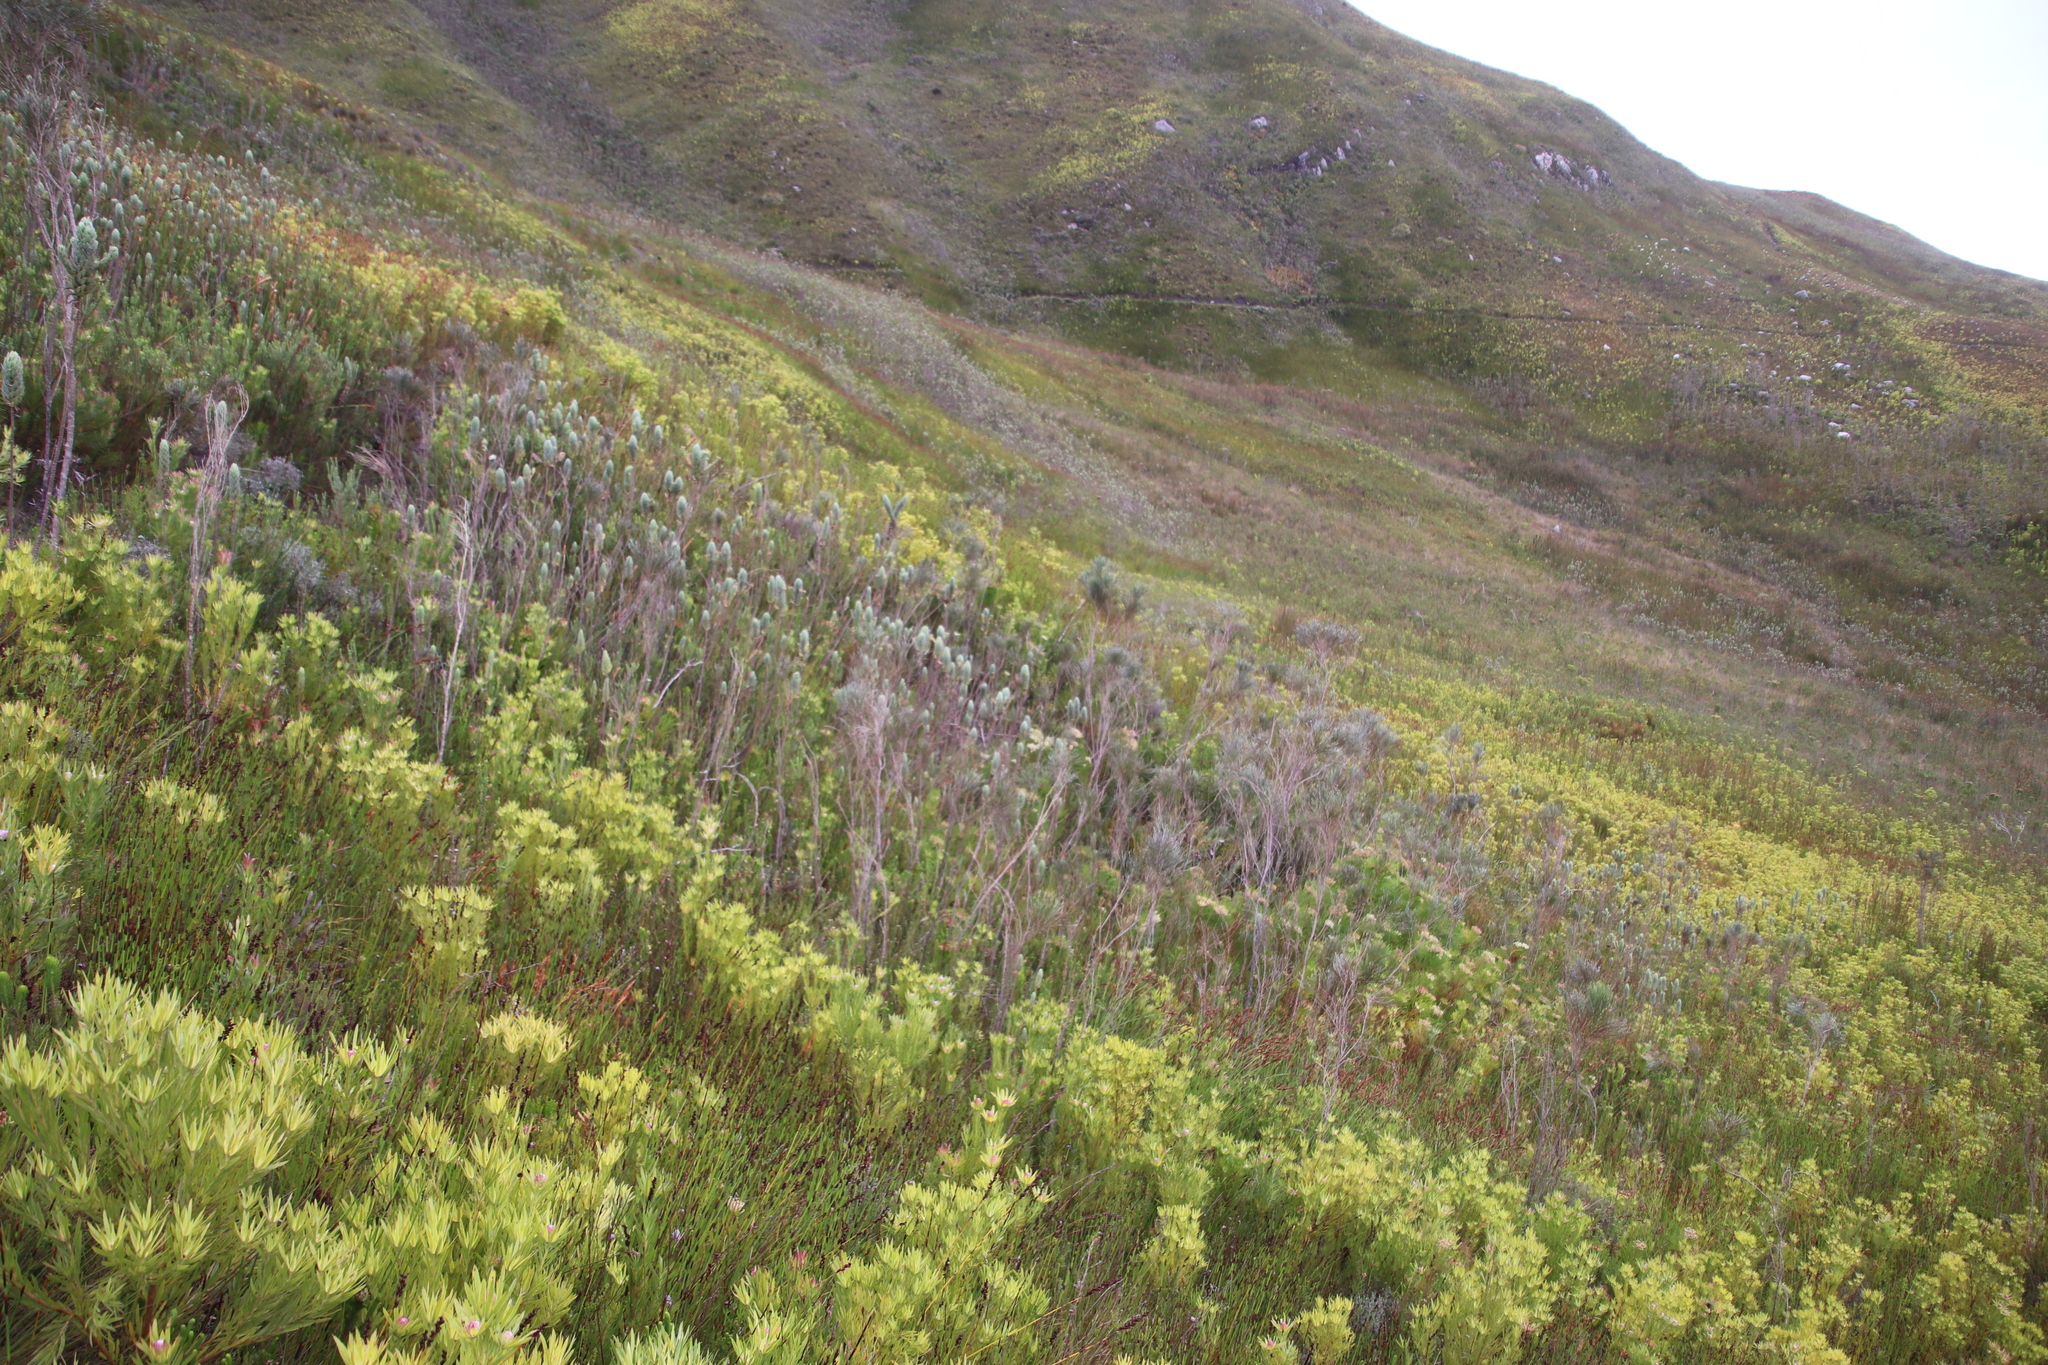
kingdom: Plantae
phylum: Tracheophyta
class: Magnoliopsida
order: Asterales
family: Asteraceae
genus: Osmitopsis
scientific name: Osmitopsis asteriscoides
